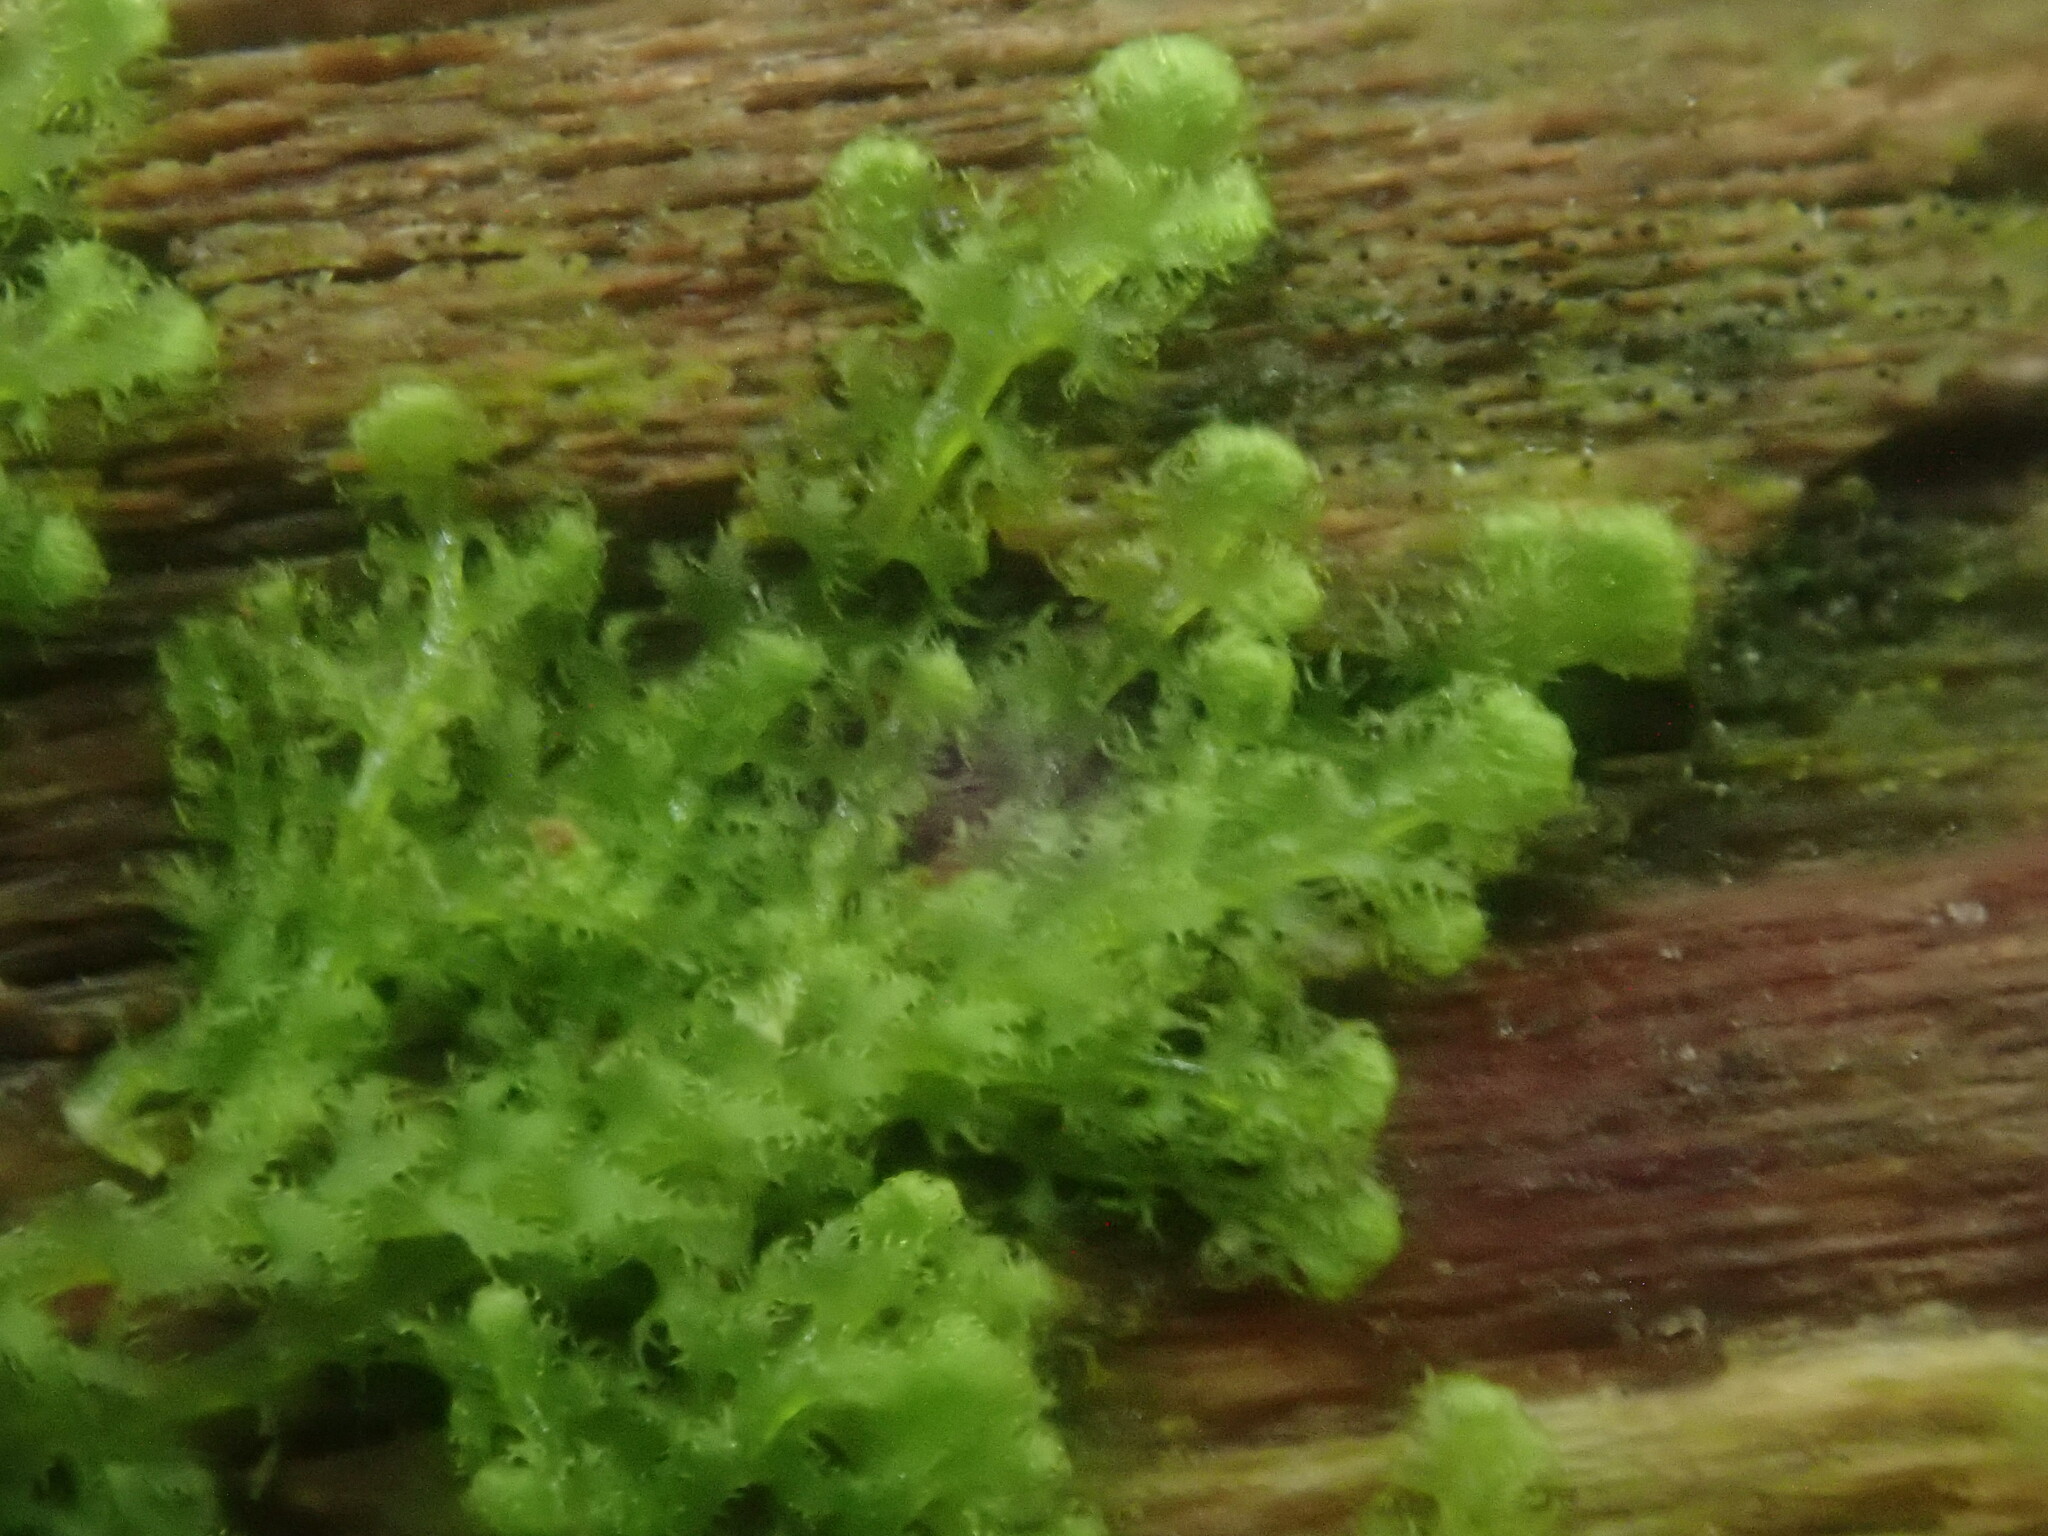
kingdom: Plantae
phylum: Marchantiophyta
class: Jungermanniopsida
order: Ptilidiales
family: Ptilidiaceae
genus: Ptilidium
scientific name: Ptilidium pulcherrimum
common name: Tree fringewort
